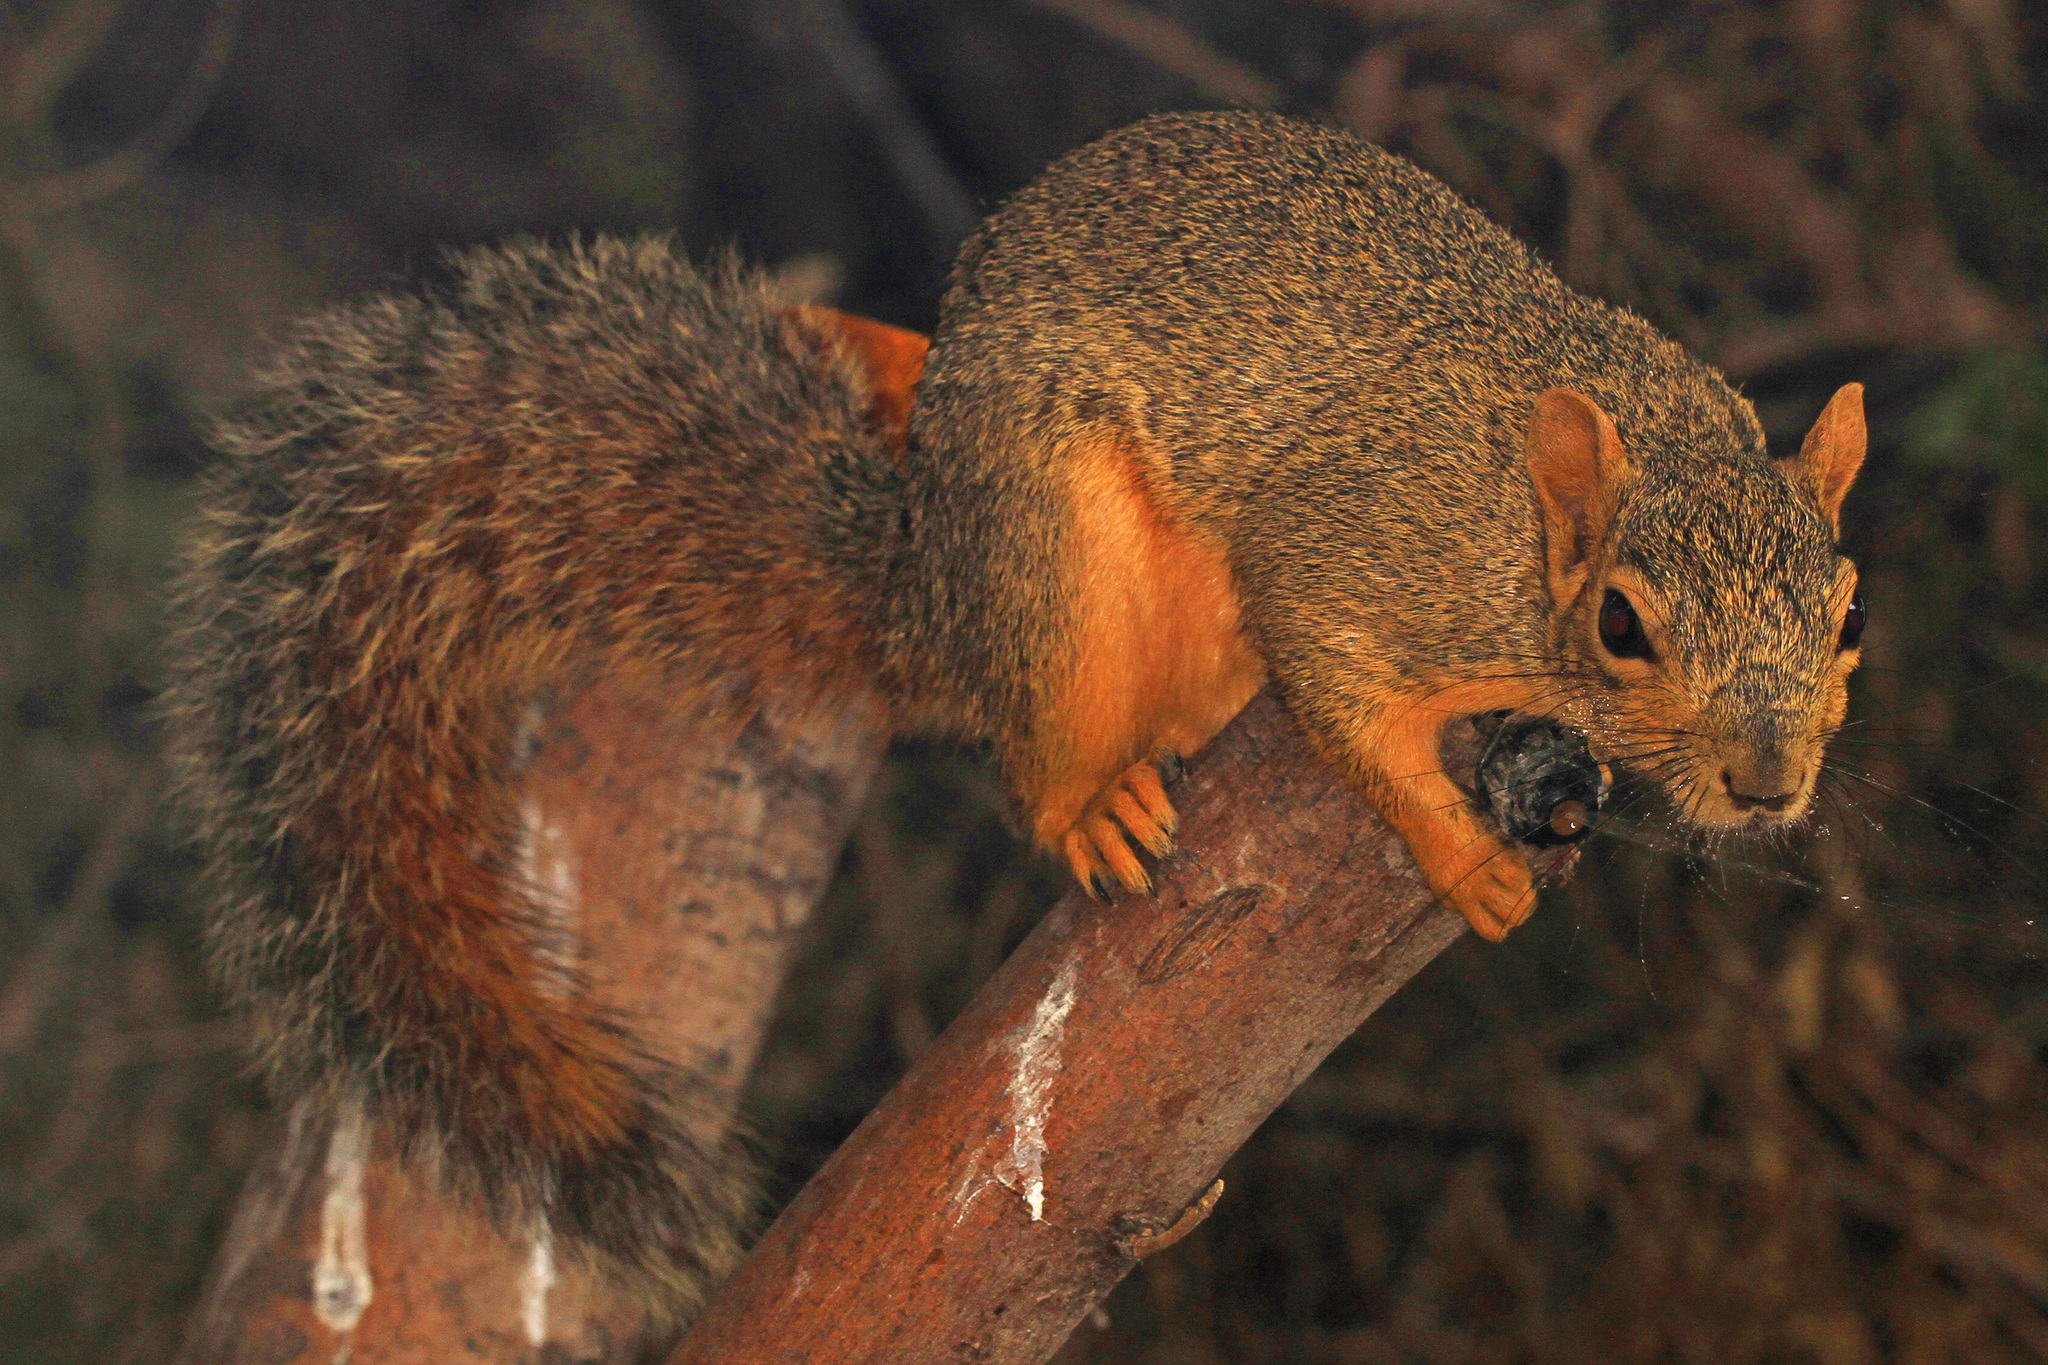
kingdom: Animalia
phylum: Chordata
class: Mammalia
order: Rodentia
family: Sciuridae
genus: Sciurus
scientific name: Sciurus niger
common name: Fox squirrel
